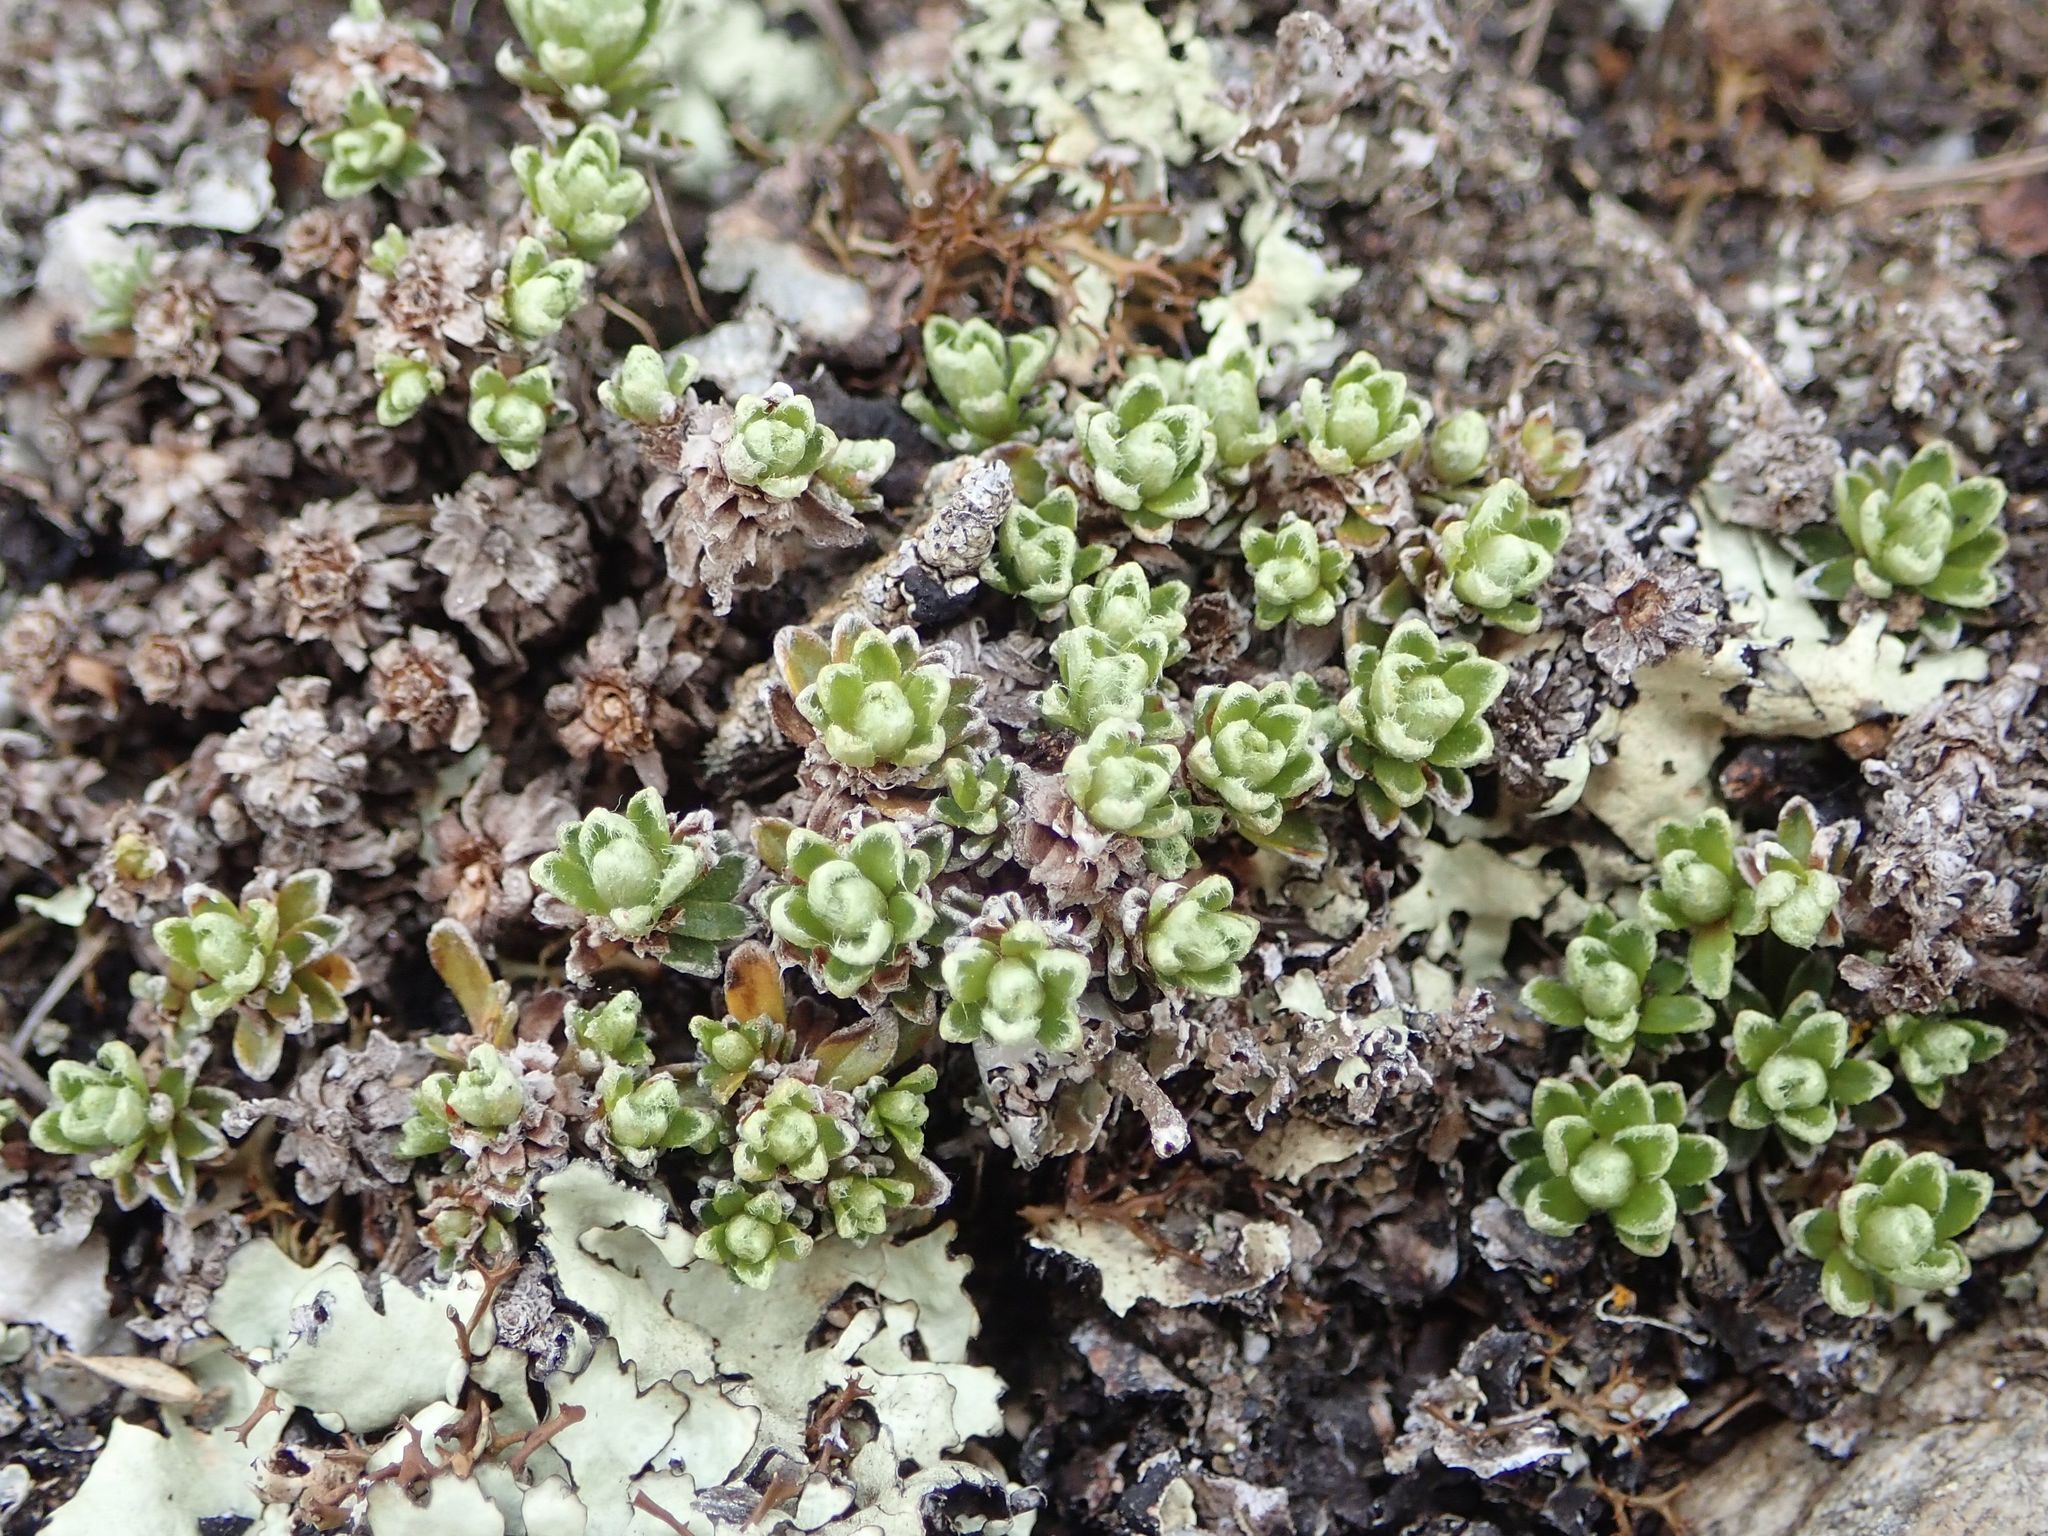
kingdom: Plantae
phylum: Tracheophyta
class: Magnoliopsida
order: Asterales
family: Asteraceae
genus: Raoulia
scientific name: Raoulia parkii
